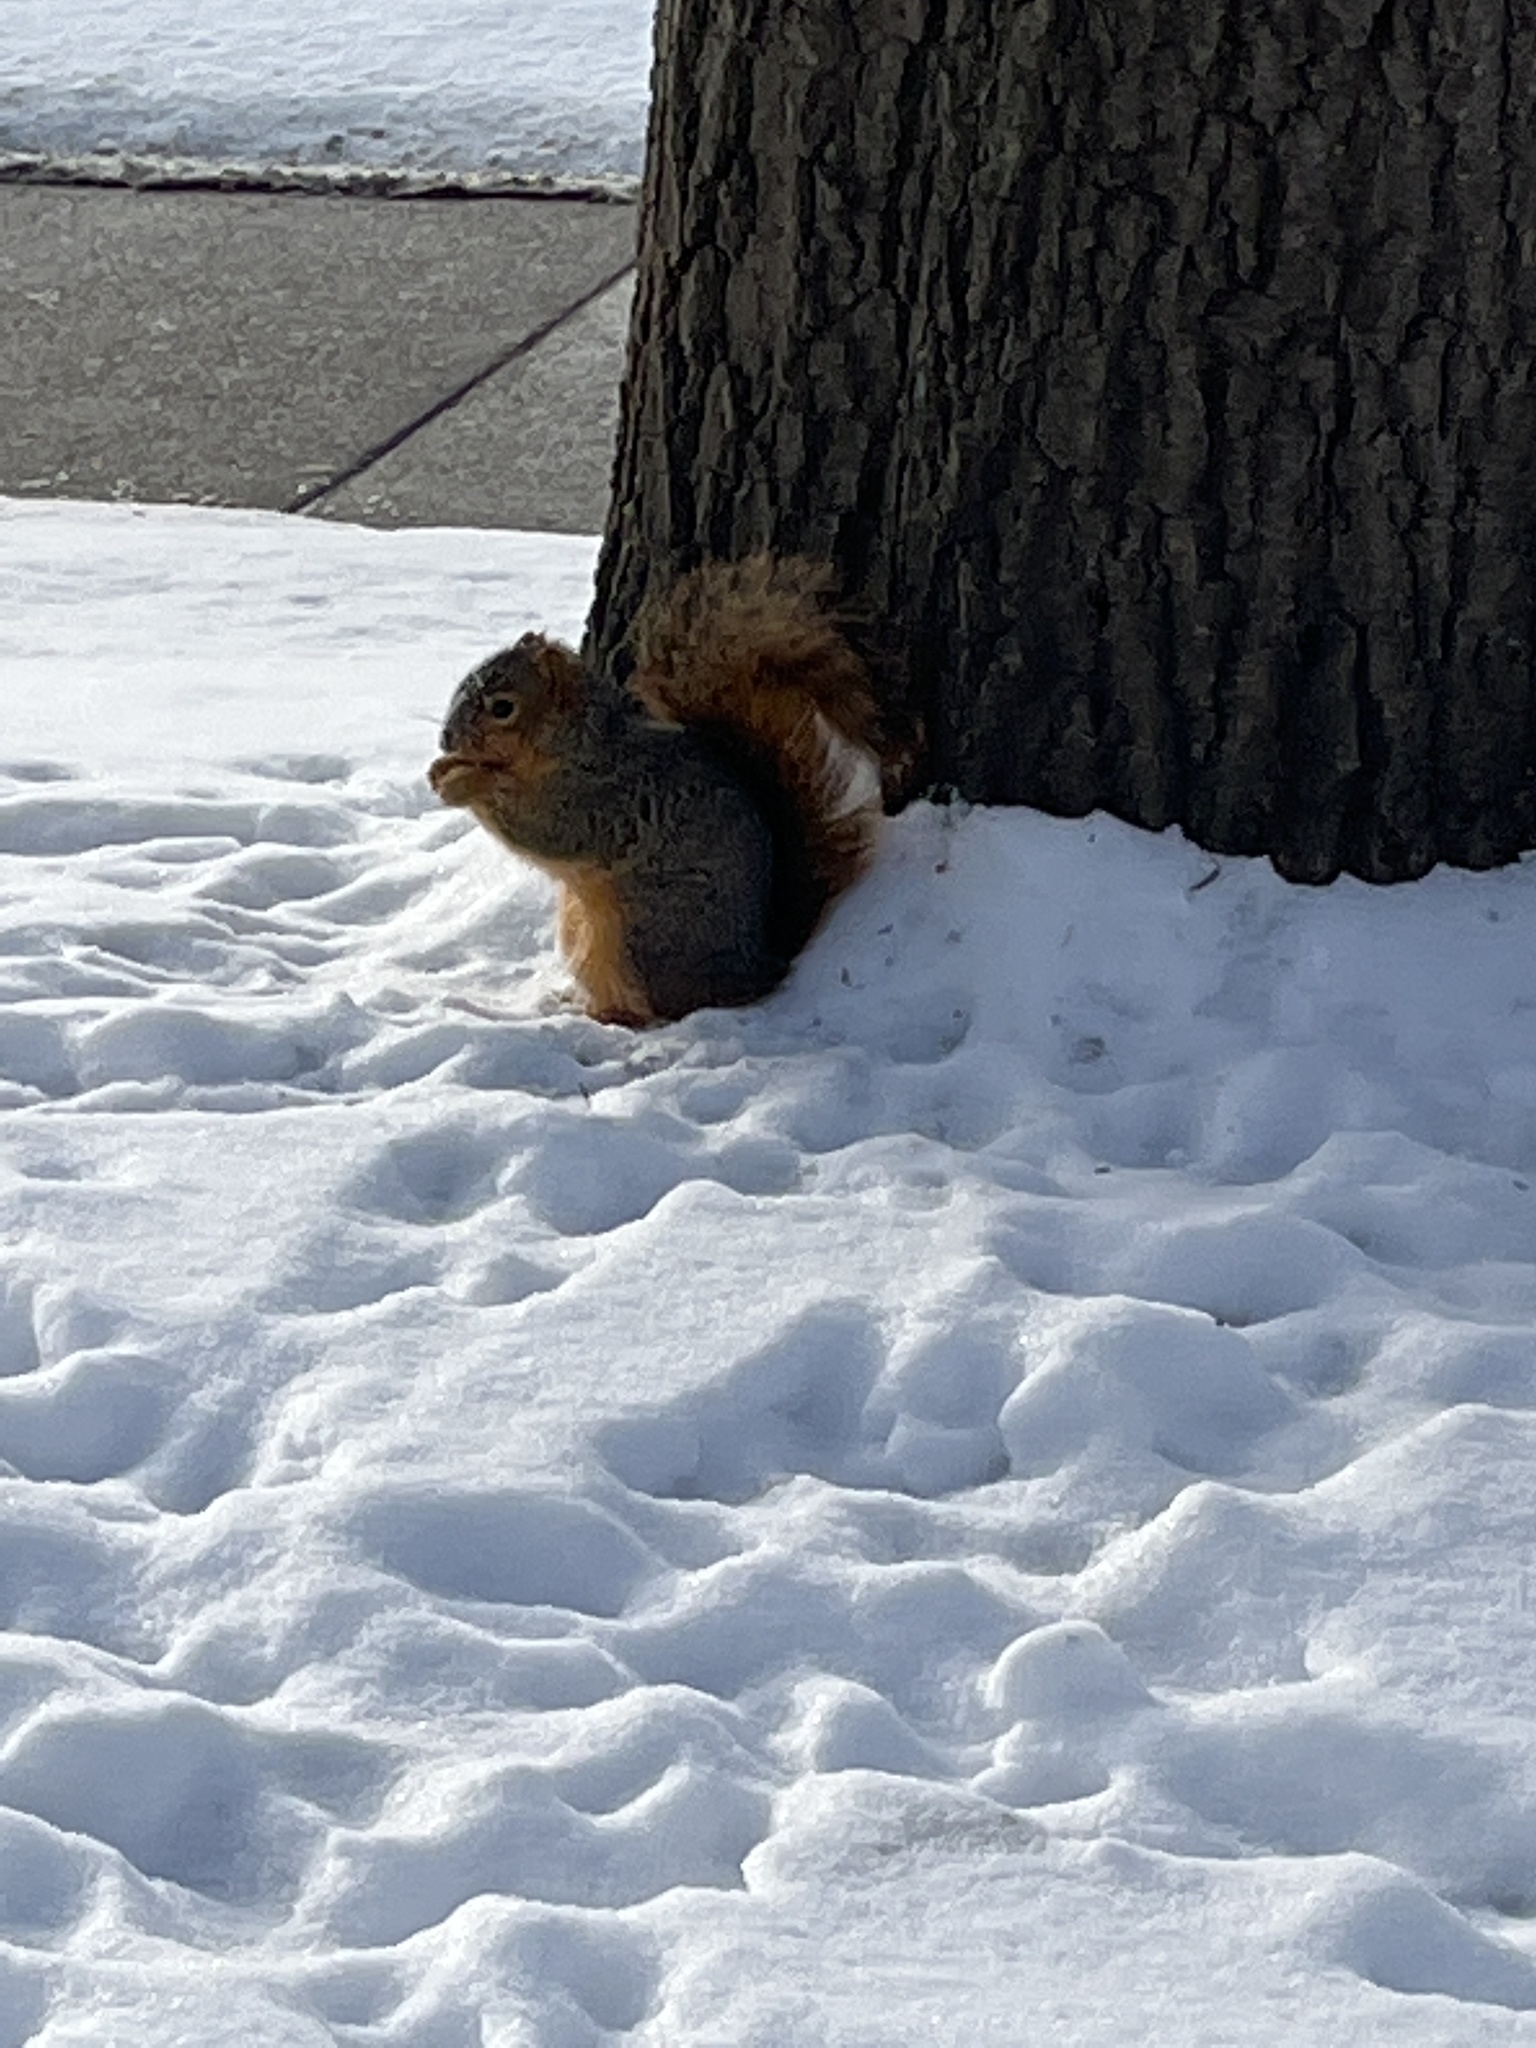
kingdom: Animalia
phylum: Chordata
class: Mammalia
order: Rodentia
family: Sciuridae
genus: Sciurus
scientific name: Sciurus niger
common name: Fox squirrel
